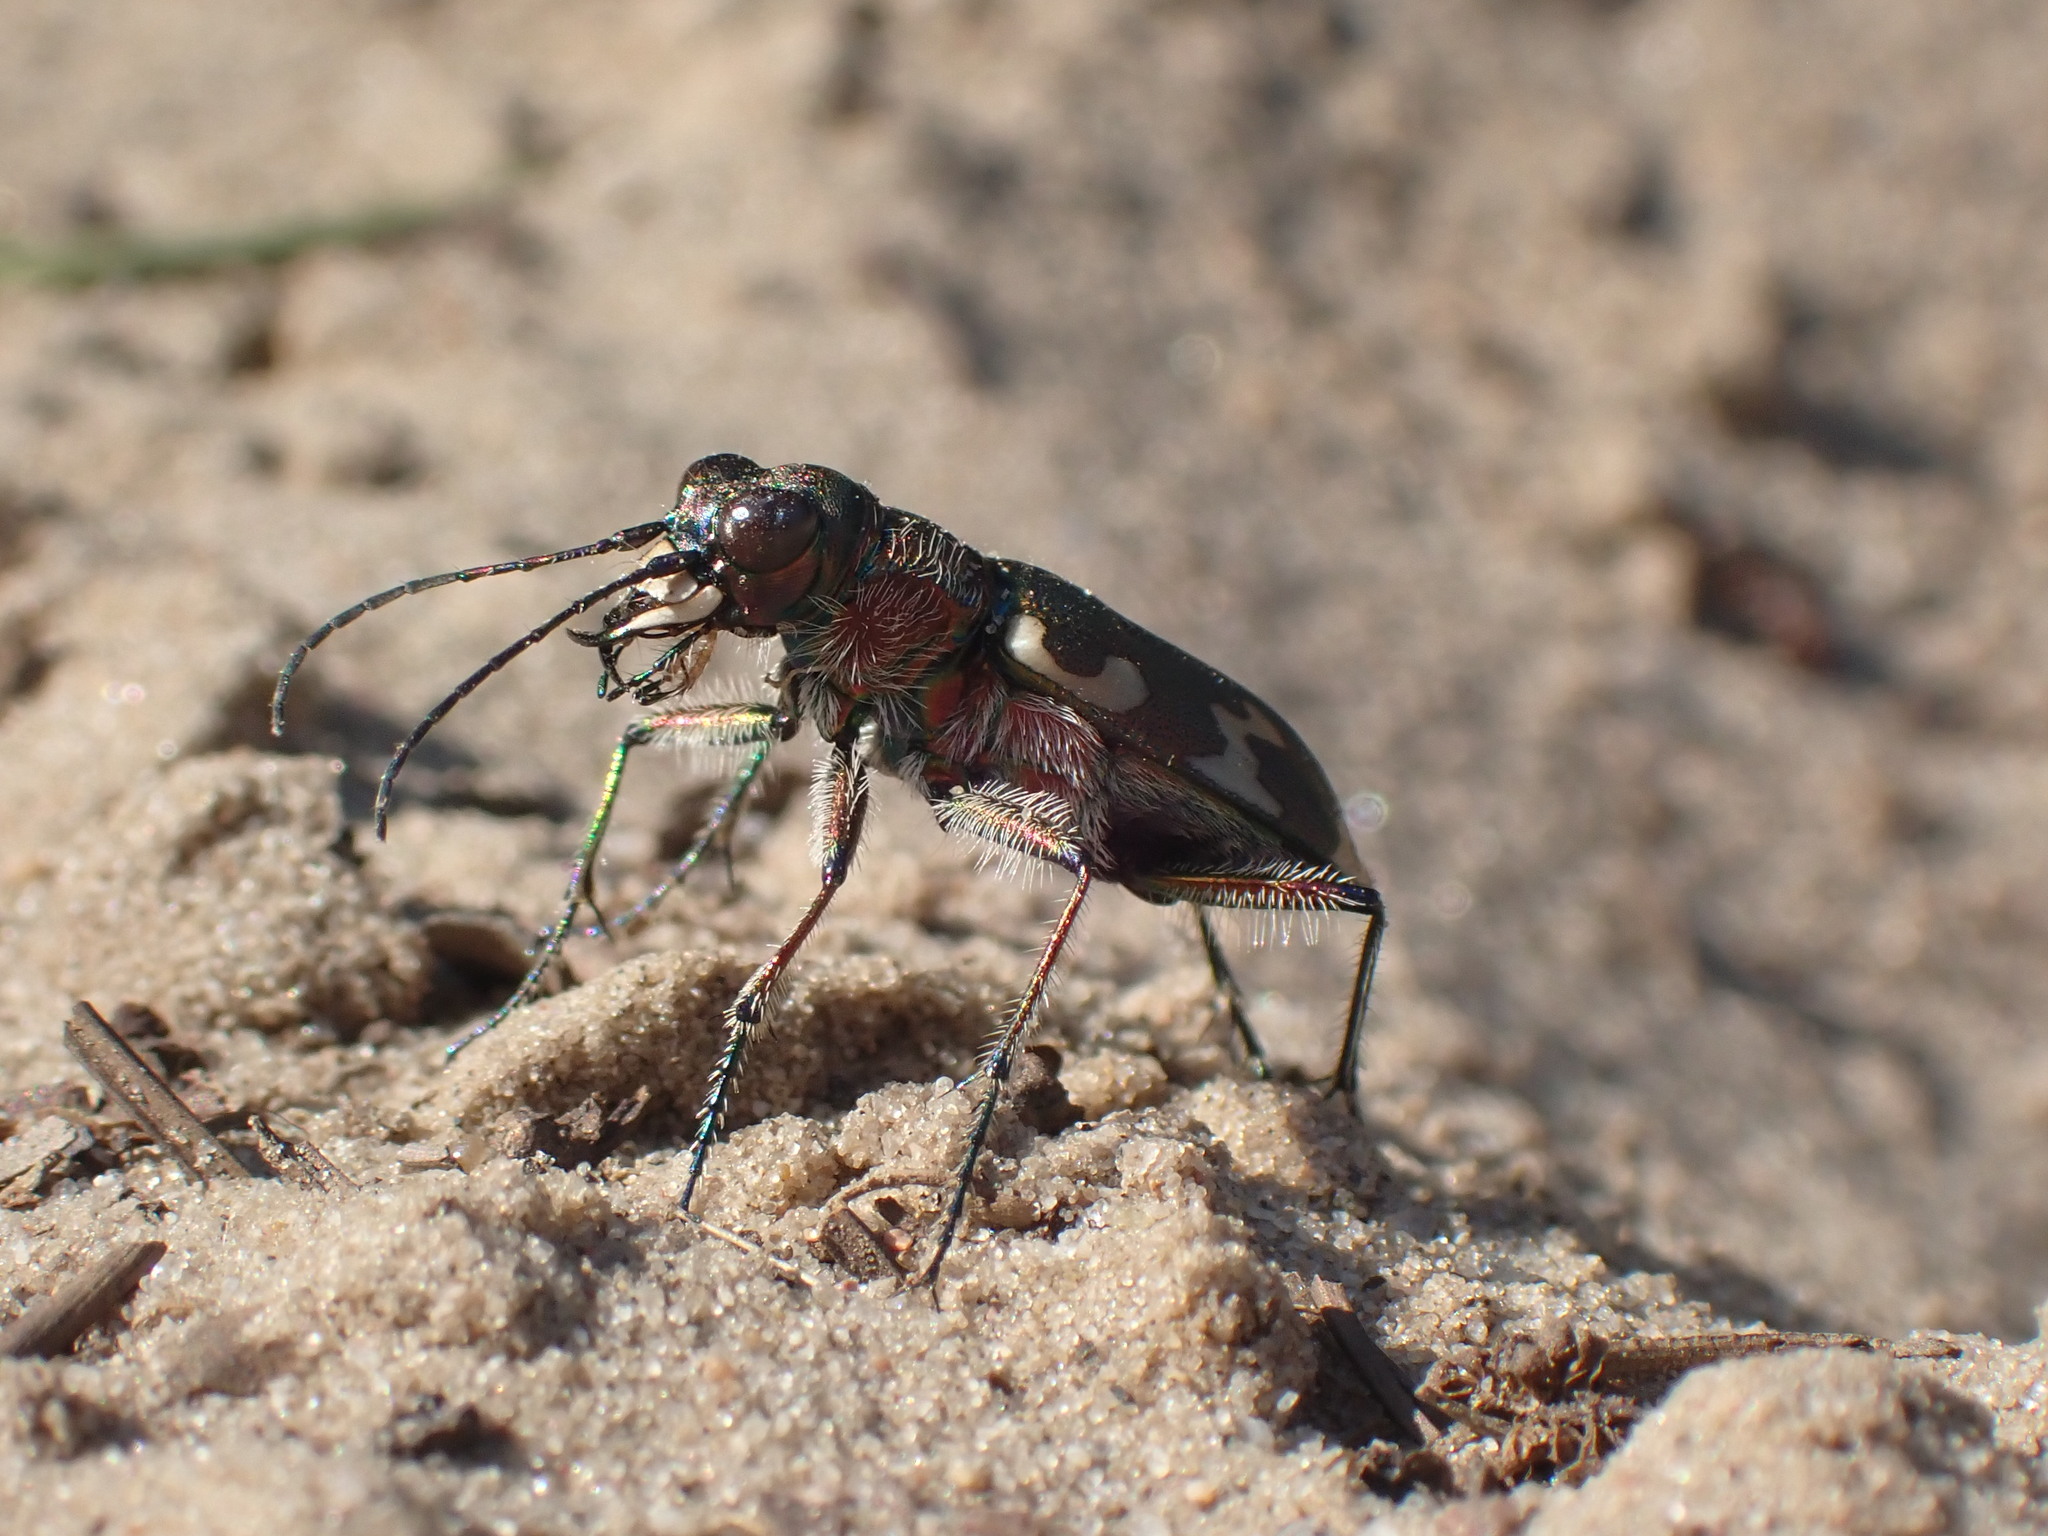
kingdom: Animalia
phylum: Arthropoda
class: Insecta
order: Coleoptera
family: Carabidae
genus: Cicindela
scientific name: Cicindela hybrida
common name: Northern dune tiger beetle
